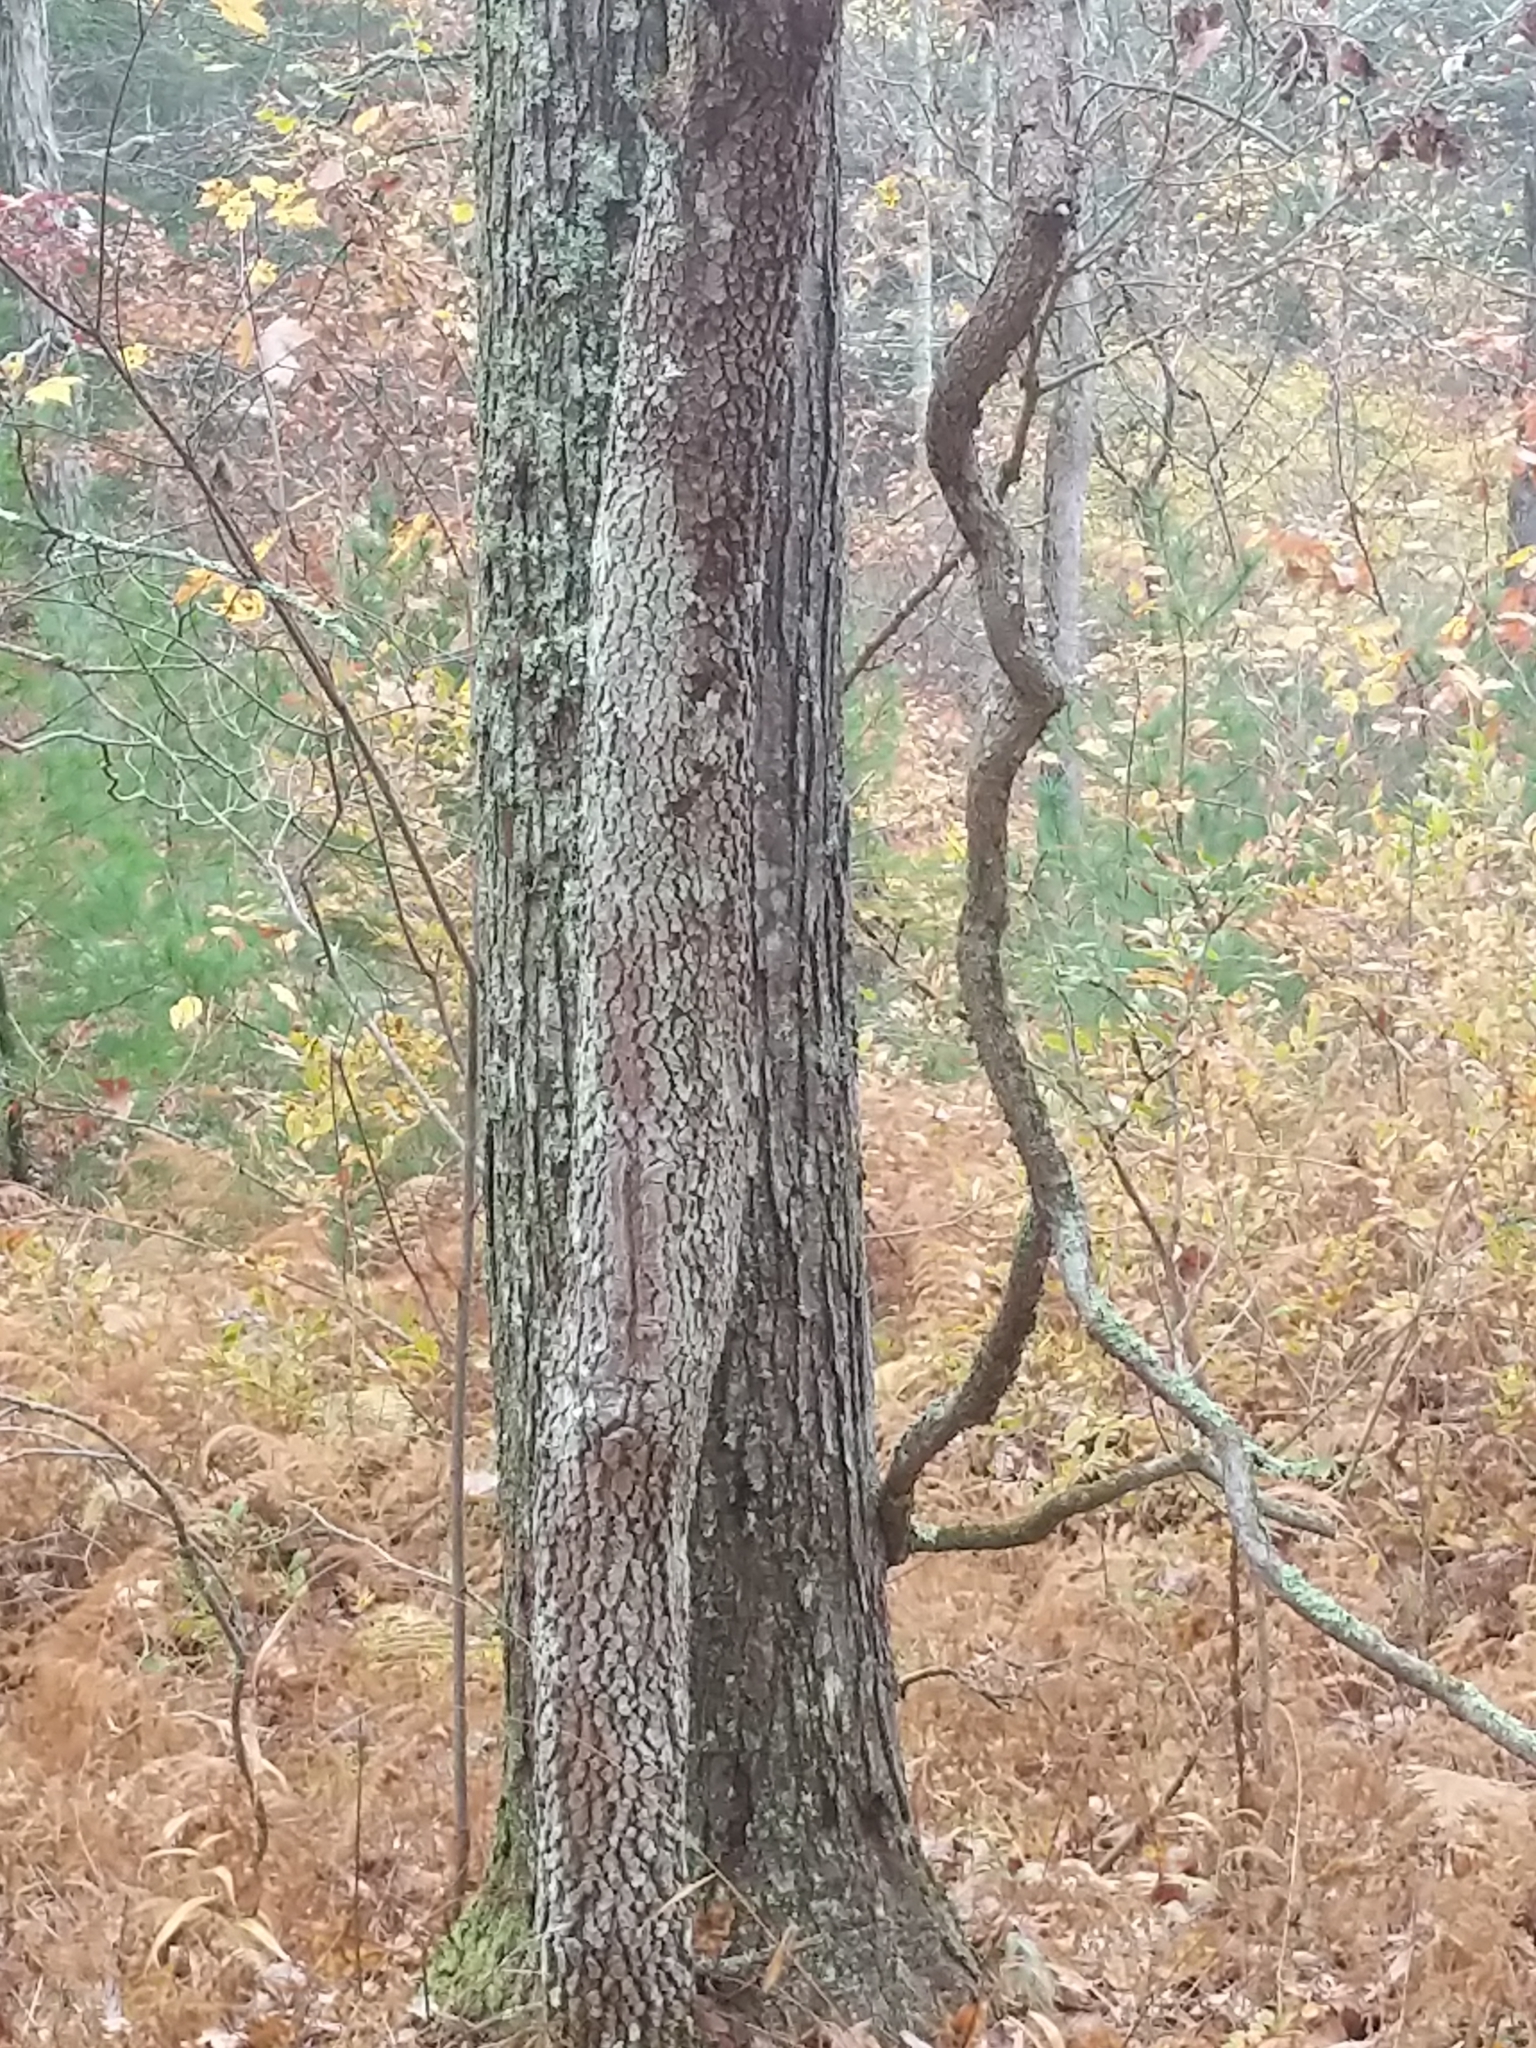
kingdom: Plantae
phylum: Tracheophyta
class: Magnoliopsida
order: Cornales
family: Cornaceae
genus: Cornus
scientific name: Cornus florida
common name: Flowering dogwood
